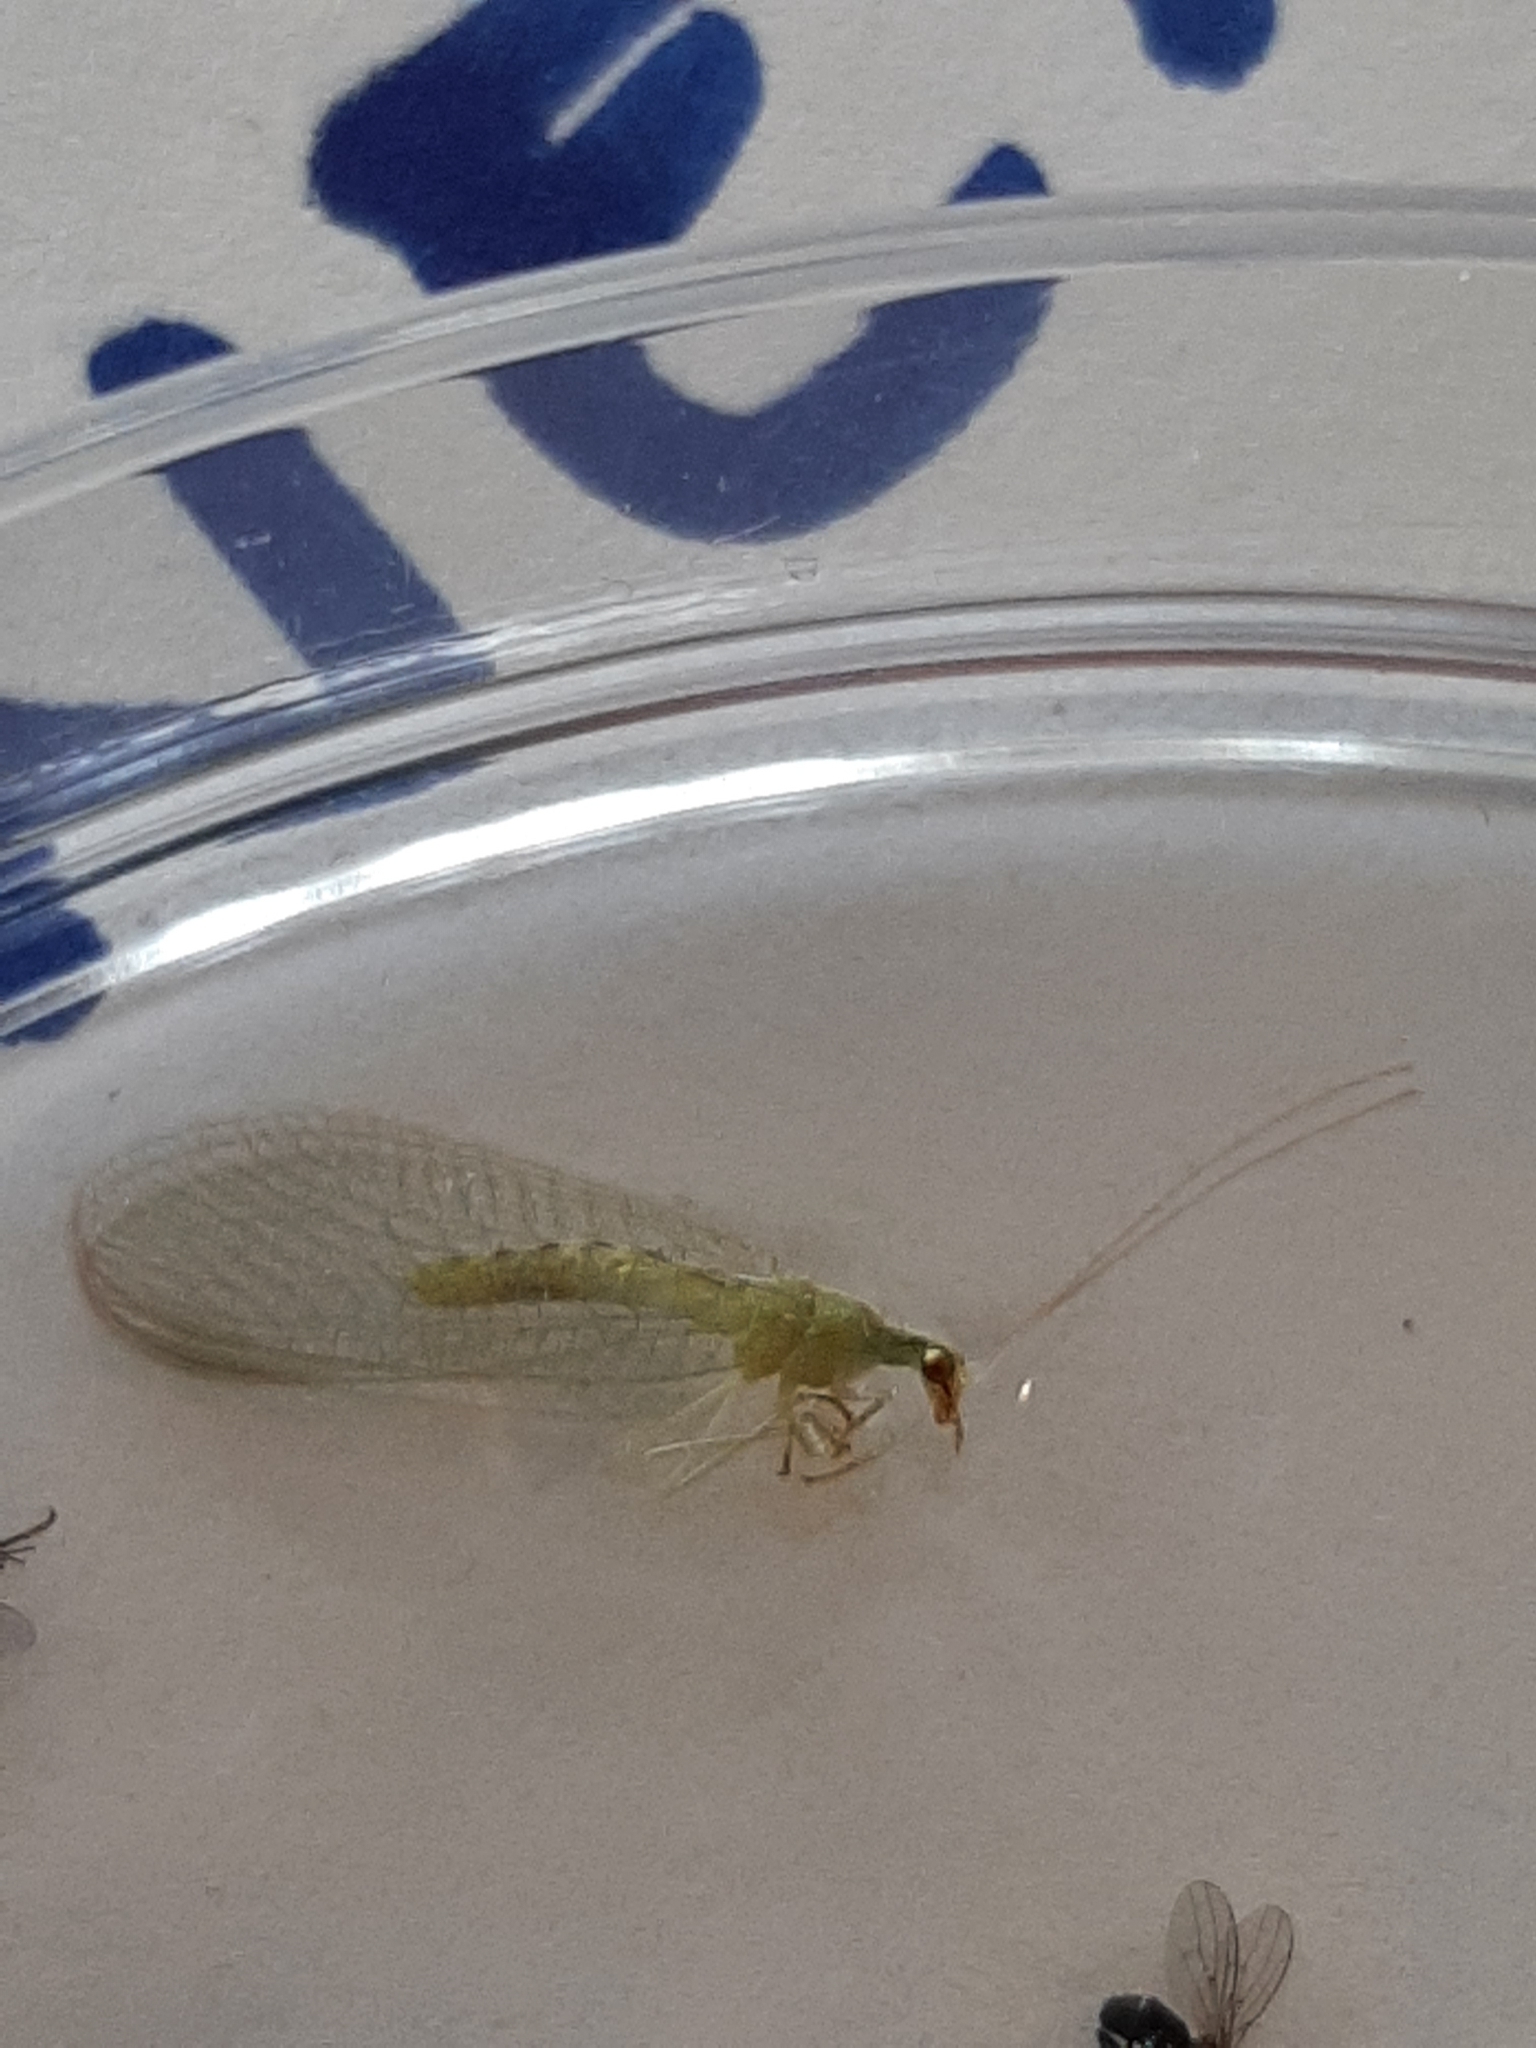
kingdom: Animalia
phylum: Arthropoda
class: Insecta
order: Neuroptera
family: Chrysopidae
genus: Chrysoperla
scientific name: Chrysoperla
